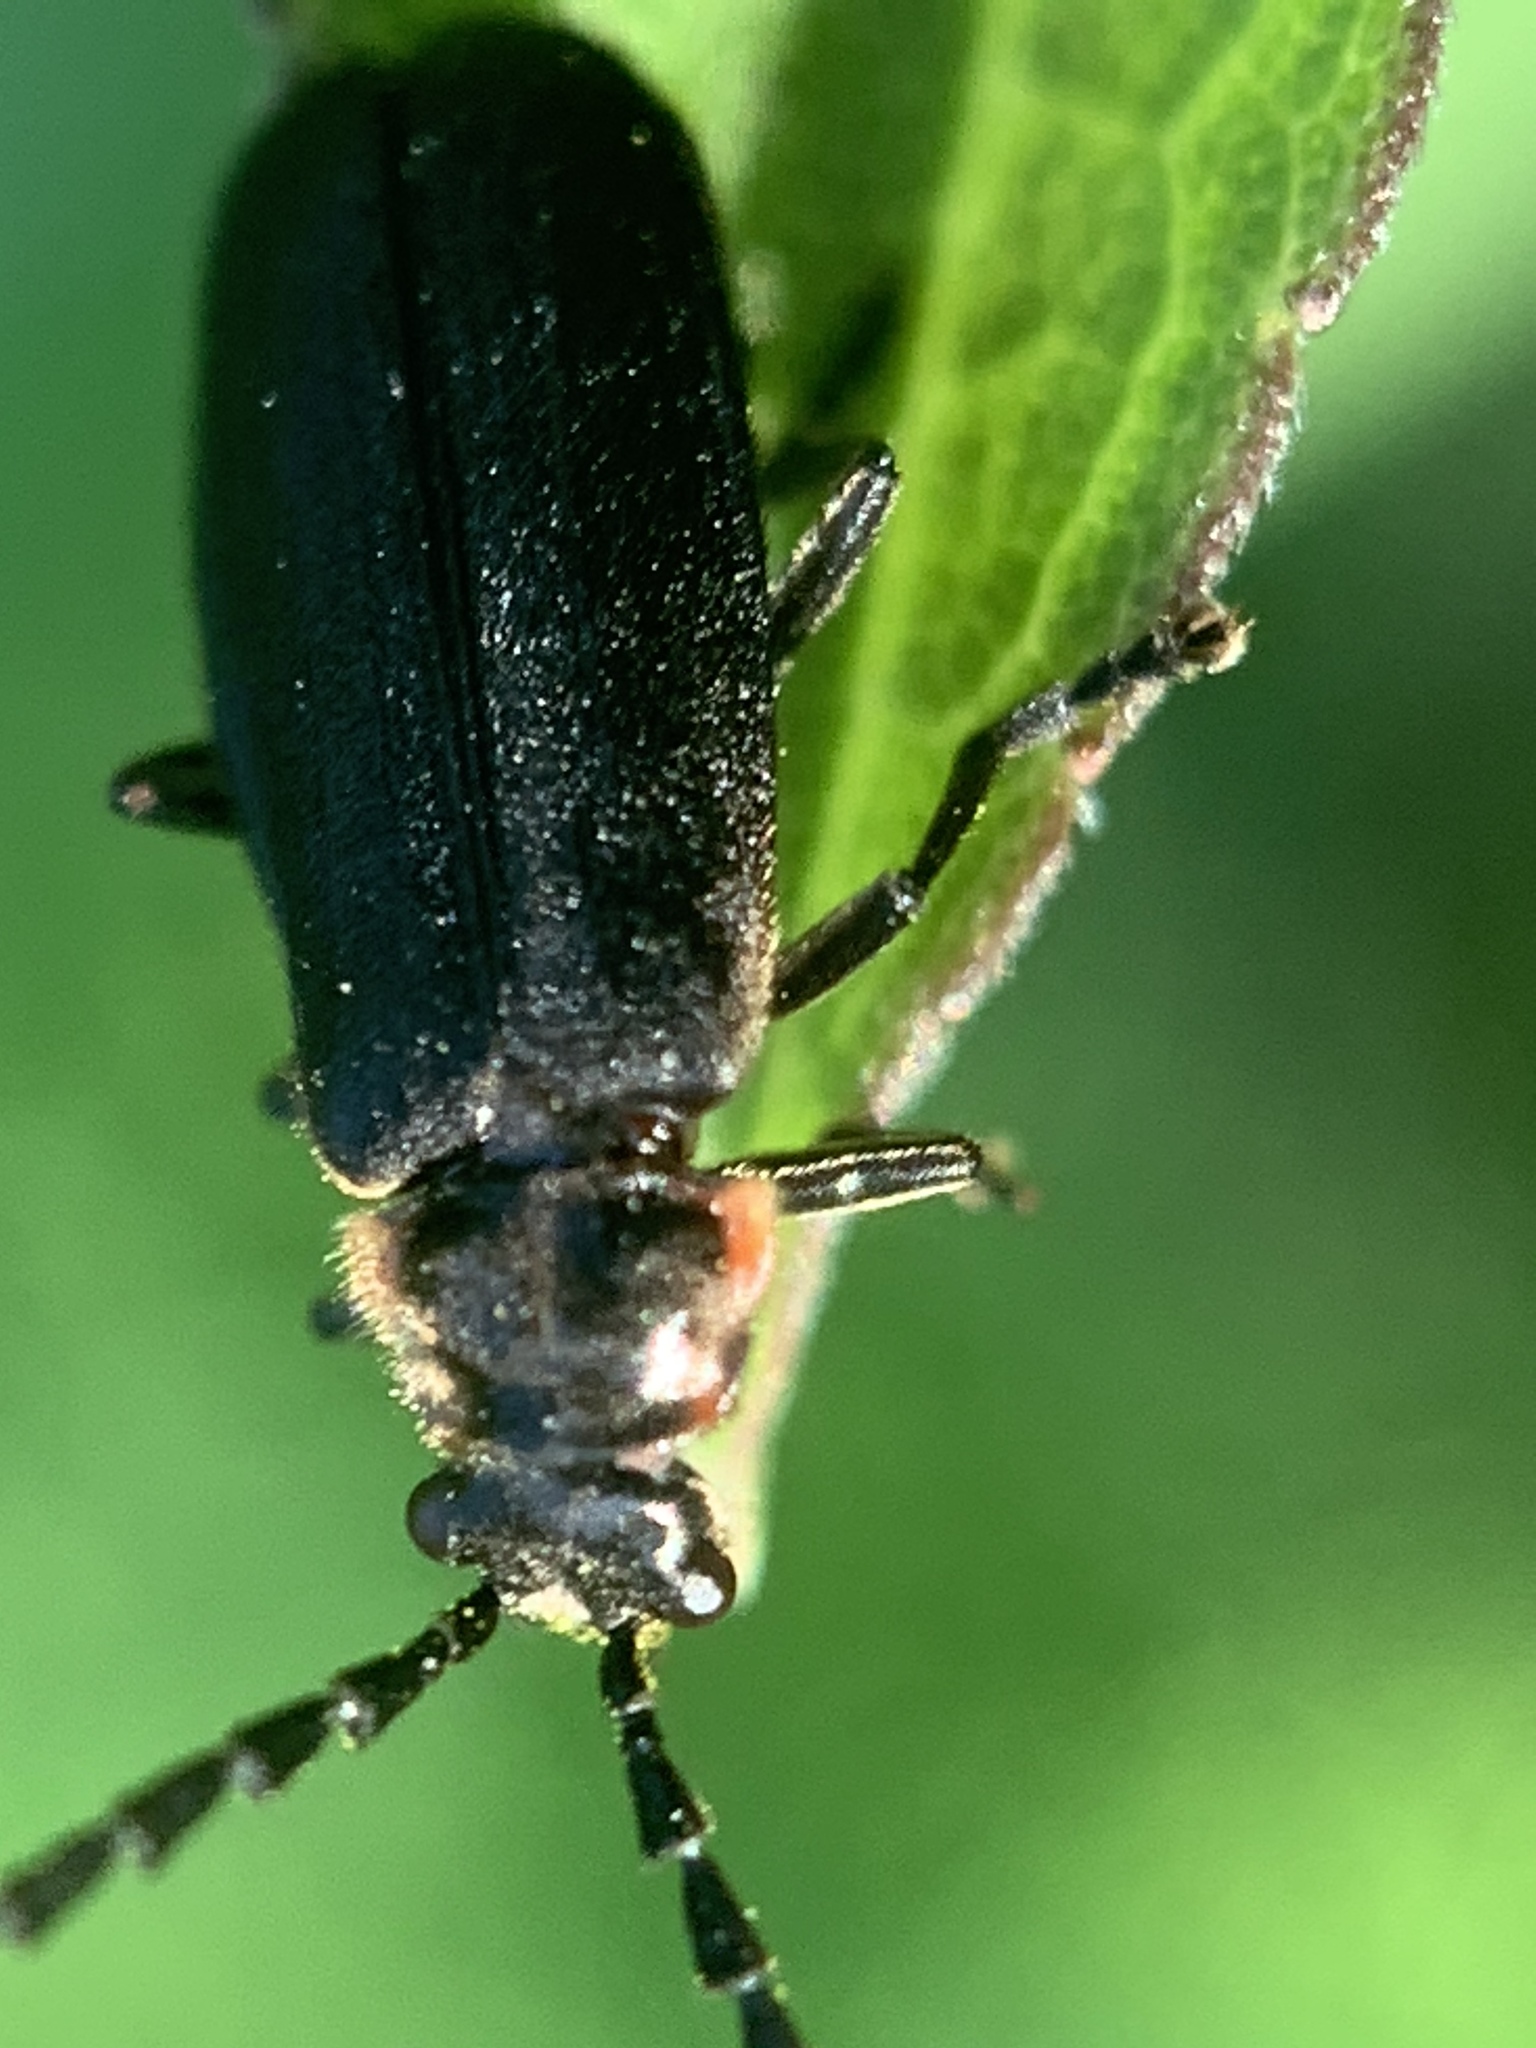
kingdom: Animalia
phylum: Arthropoda
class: Insecta
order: Coleoptera
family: Cantharidae
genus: Polemius
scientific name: Polemius laticornis
